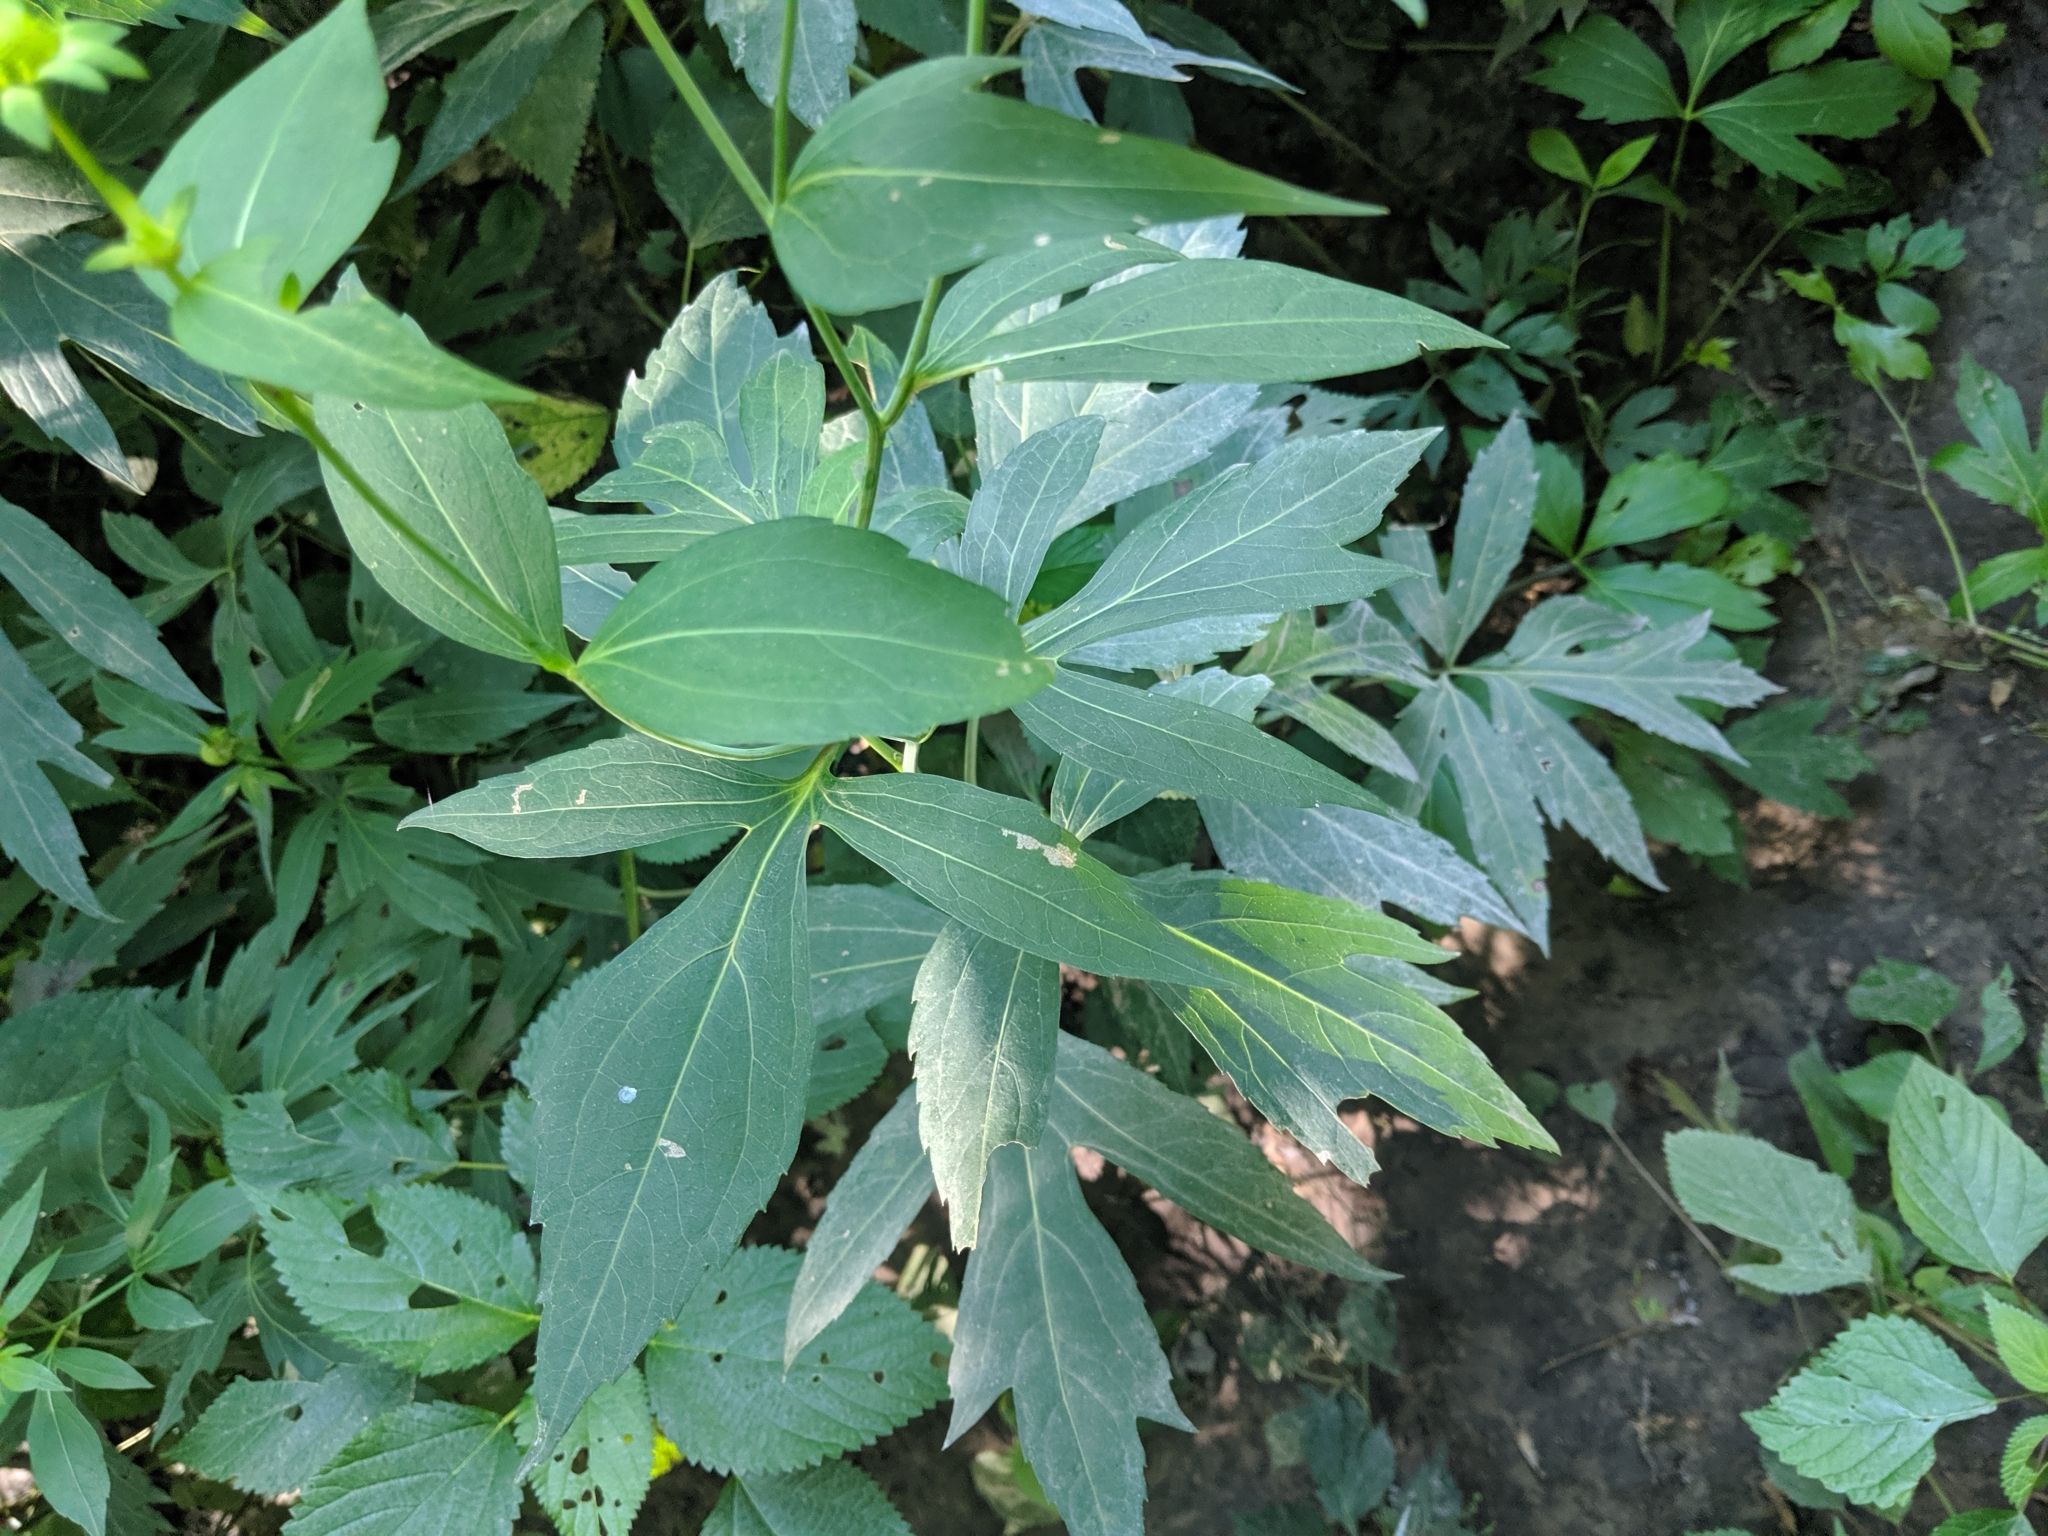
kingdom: Plantae
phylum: Tracheophyta
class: Magnoliopsida
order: Asterales
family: Asteraceae
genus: Rudbeckia
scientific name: Rudbeckia laciniata
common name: Coneflower
